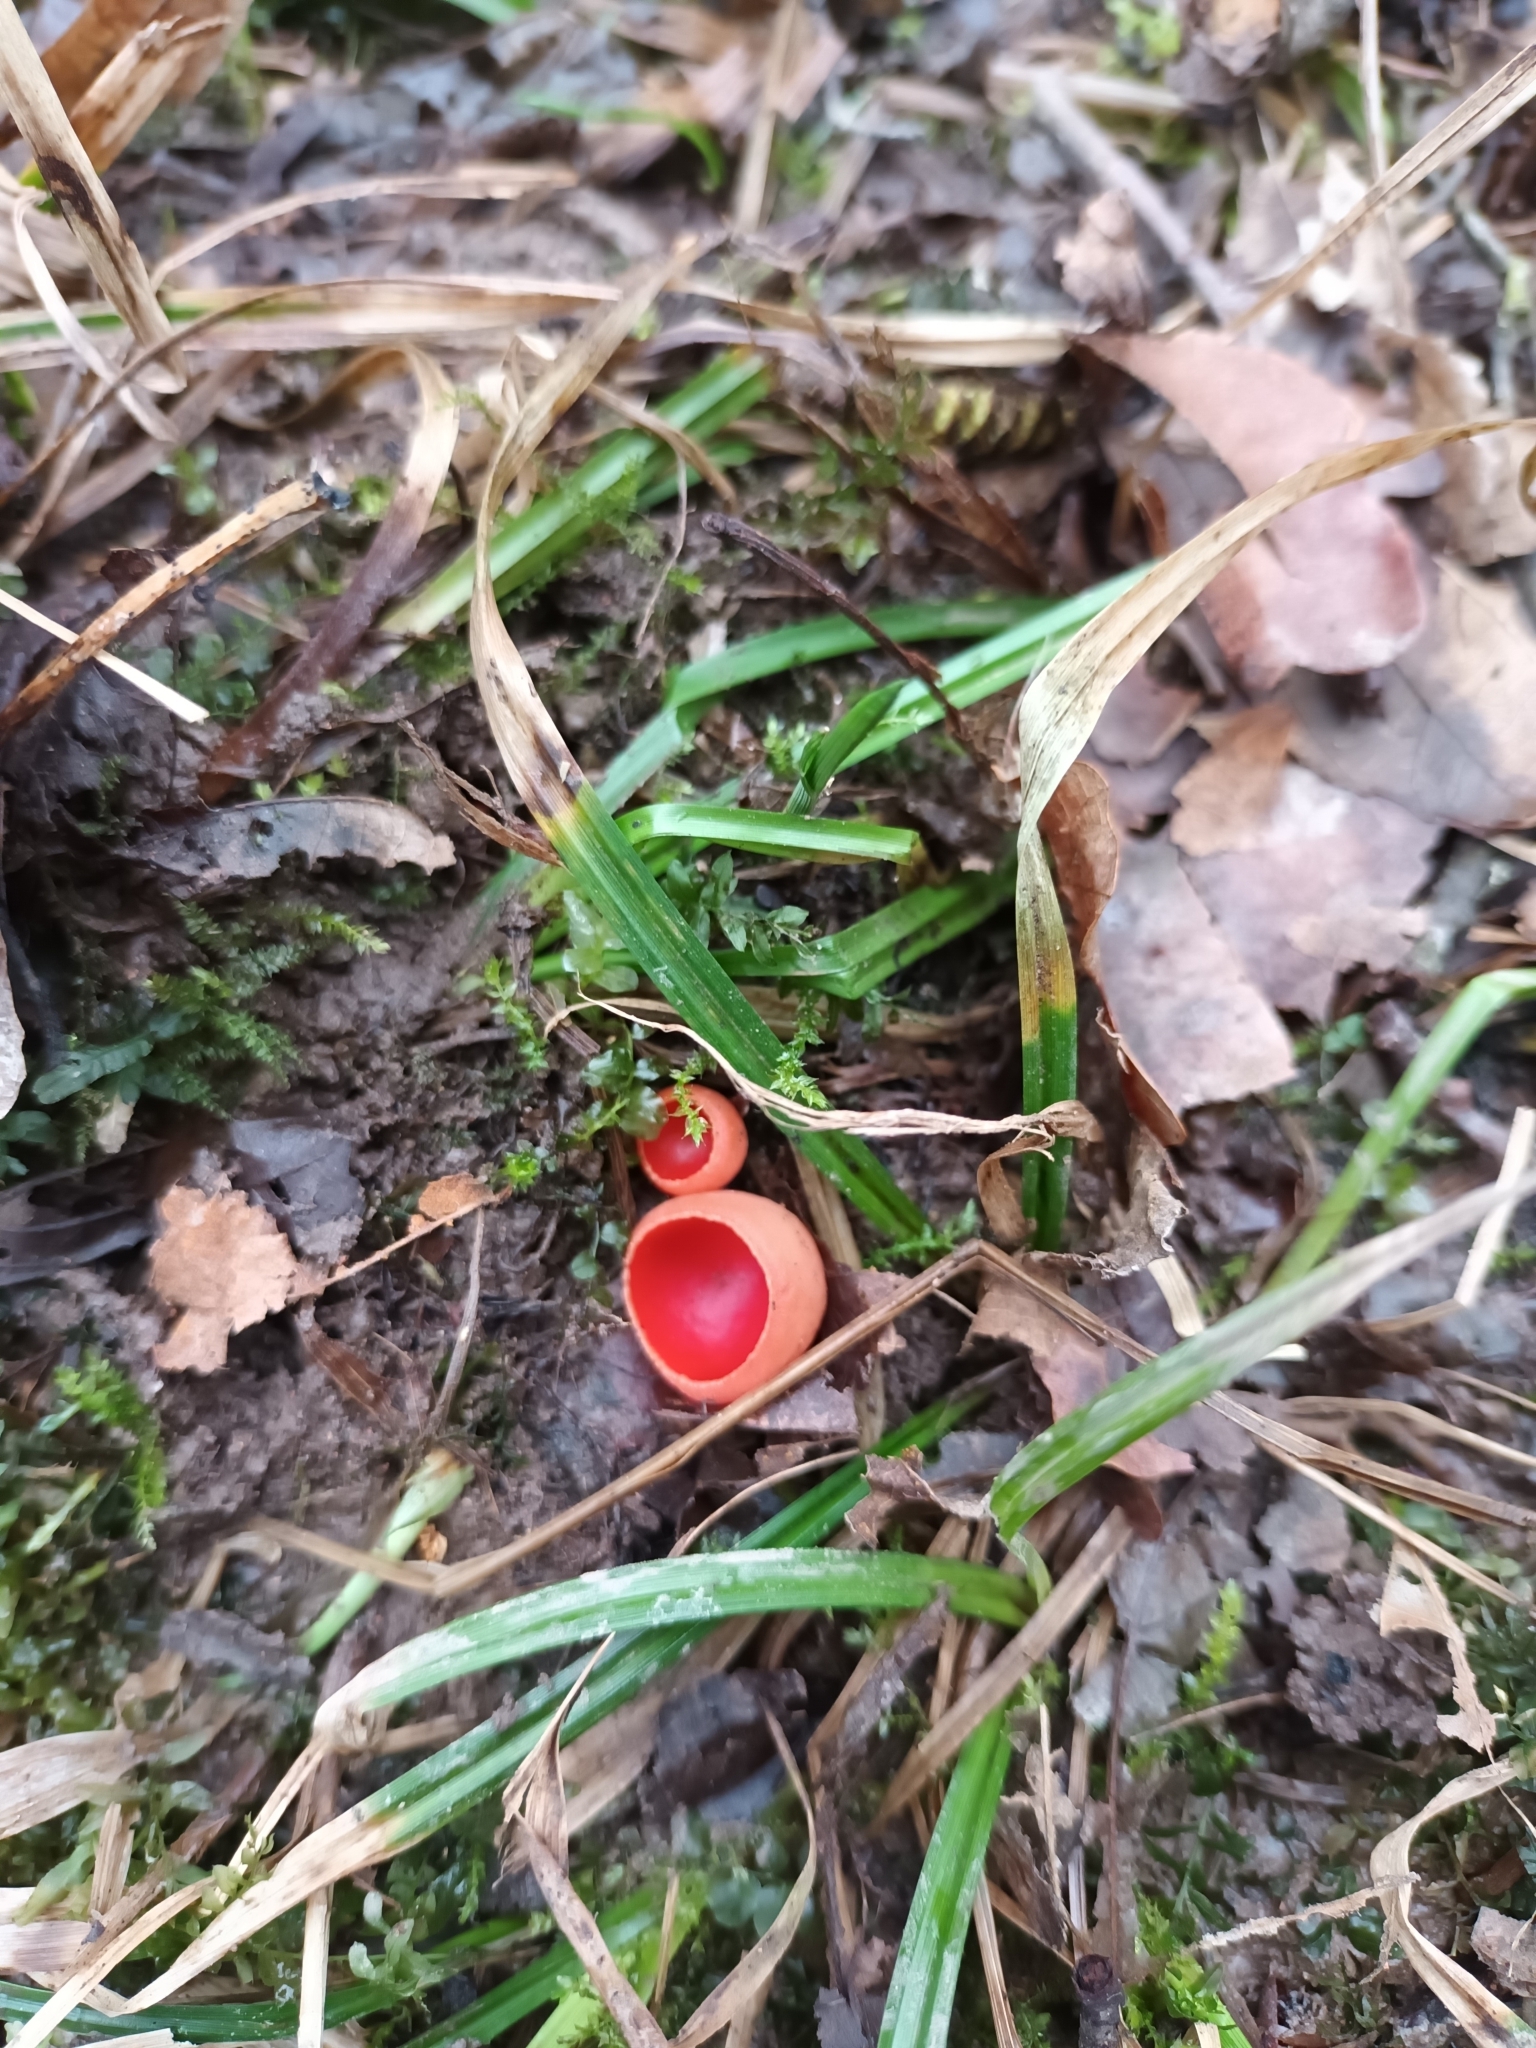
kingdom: Fungi
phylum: Ascomycota
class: Pezizomycetes
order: Pezizales
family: Sarcoscyphaceae
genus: Sarcoscypha
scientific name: Sarcoscypha
